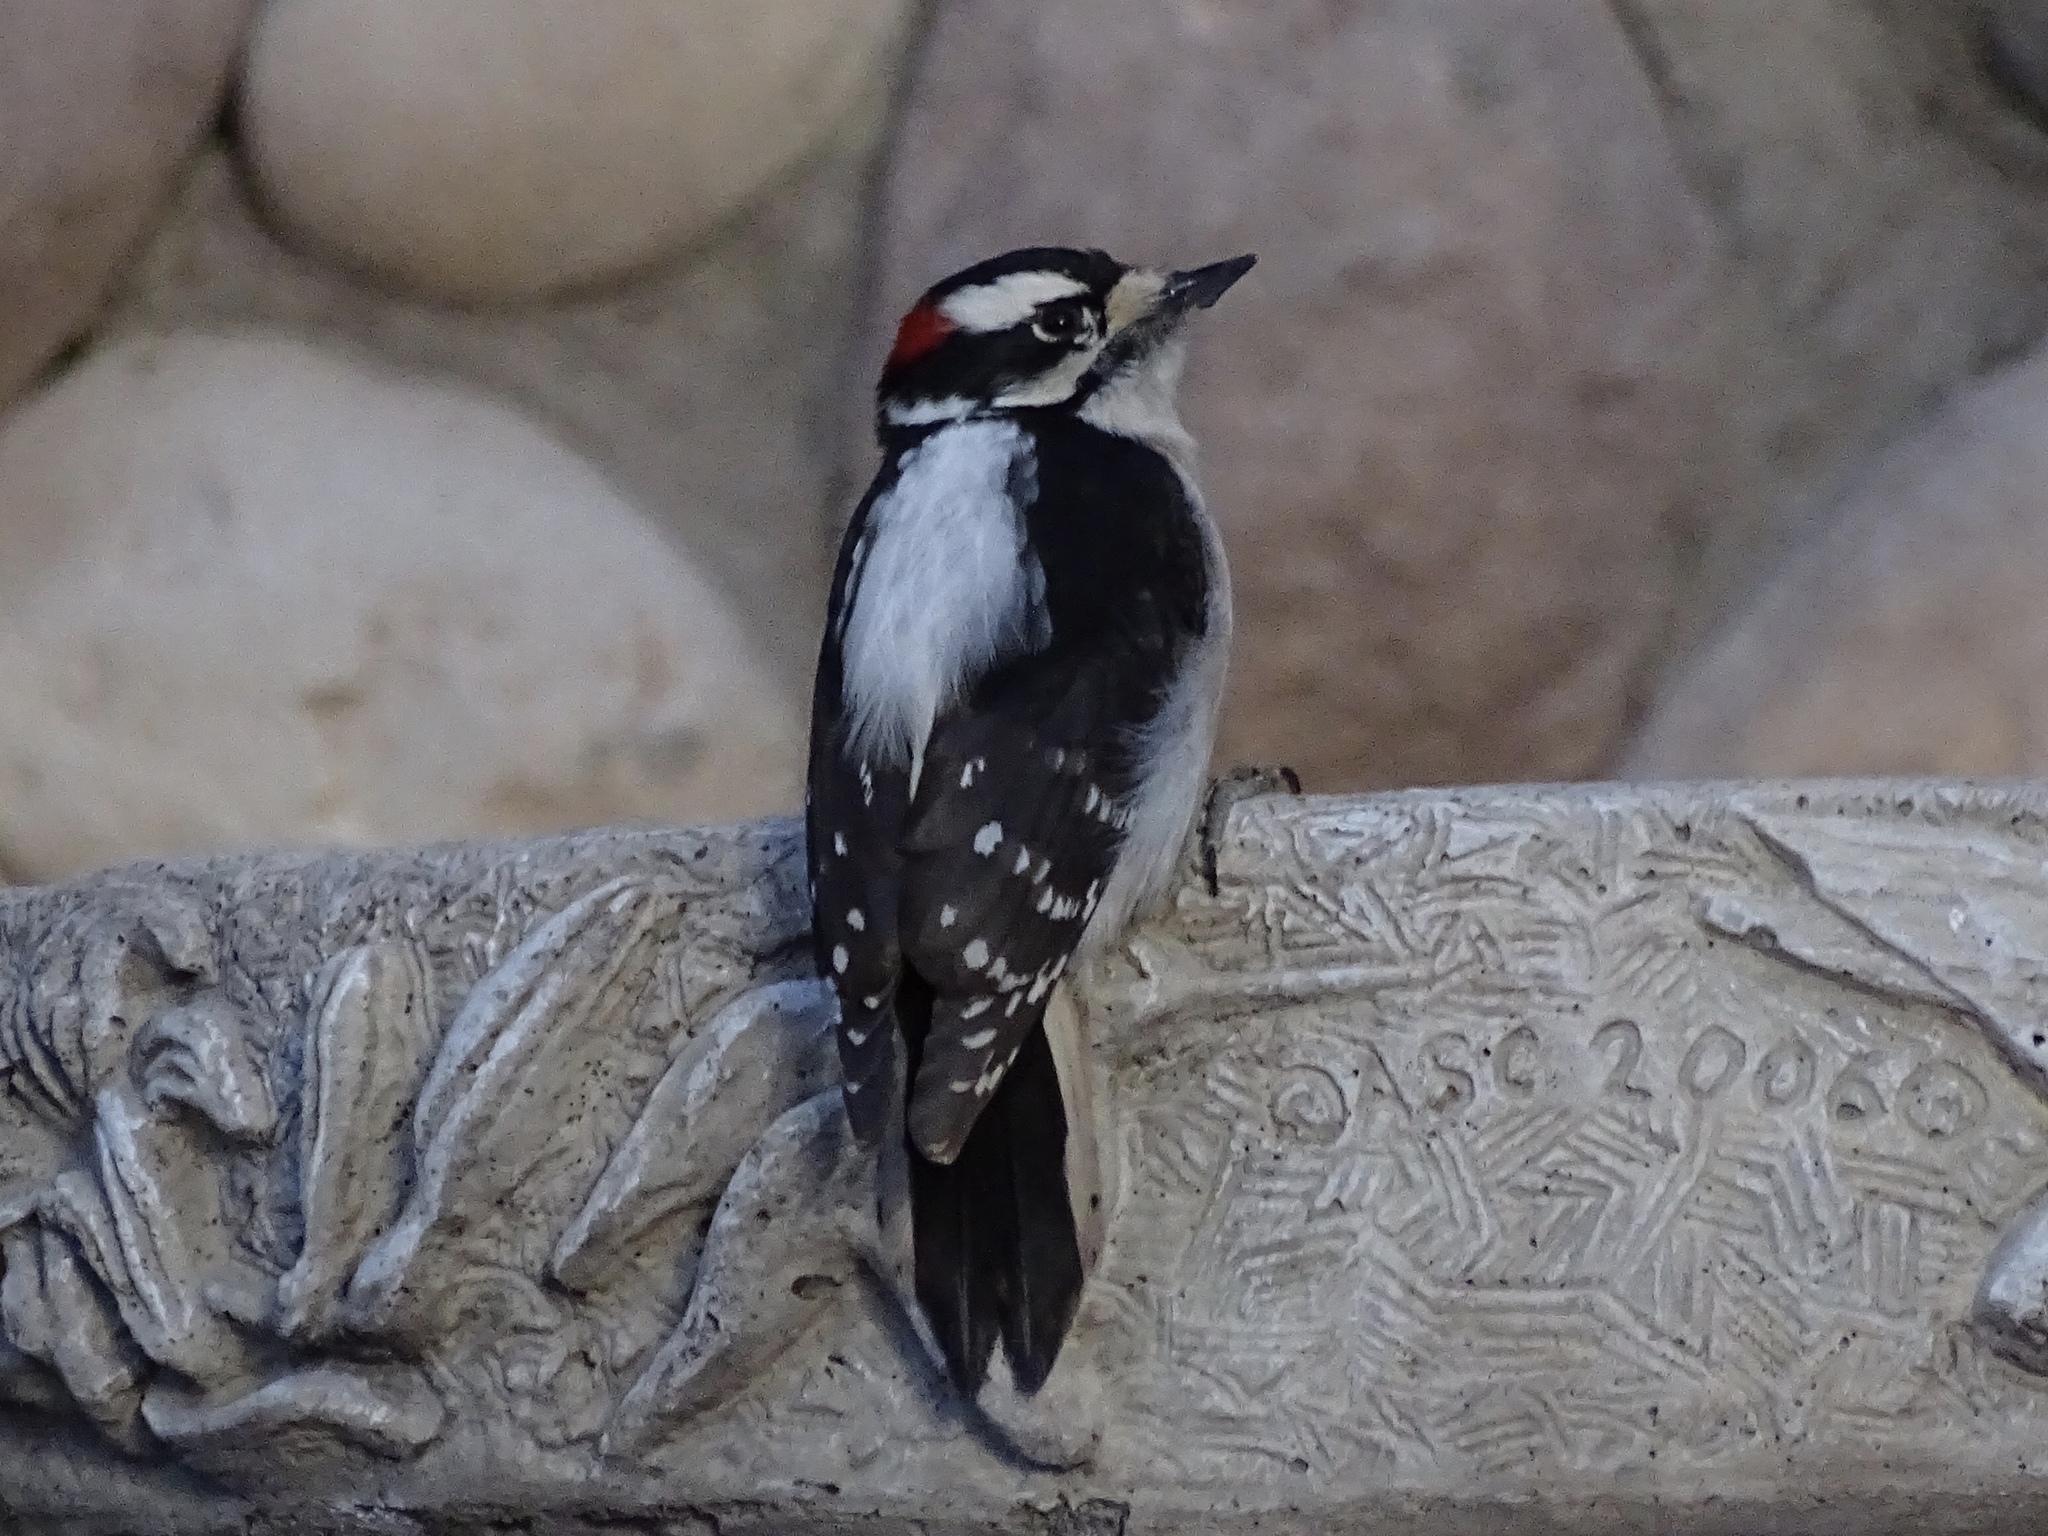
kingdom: Animalia
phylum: Chordata
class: Aves
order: Piciformes
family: Picidae
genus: Dryobates
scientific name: Dryobates pubescens
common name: Downy woodpecker
